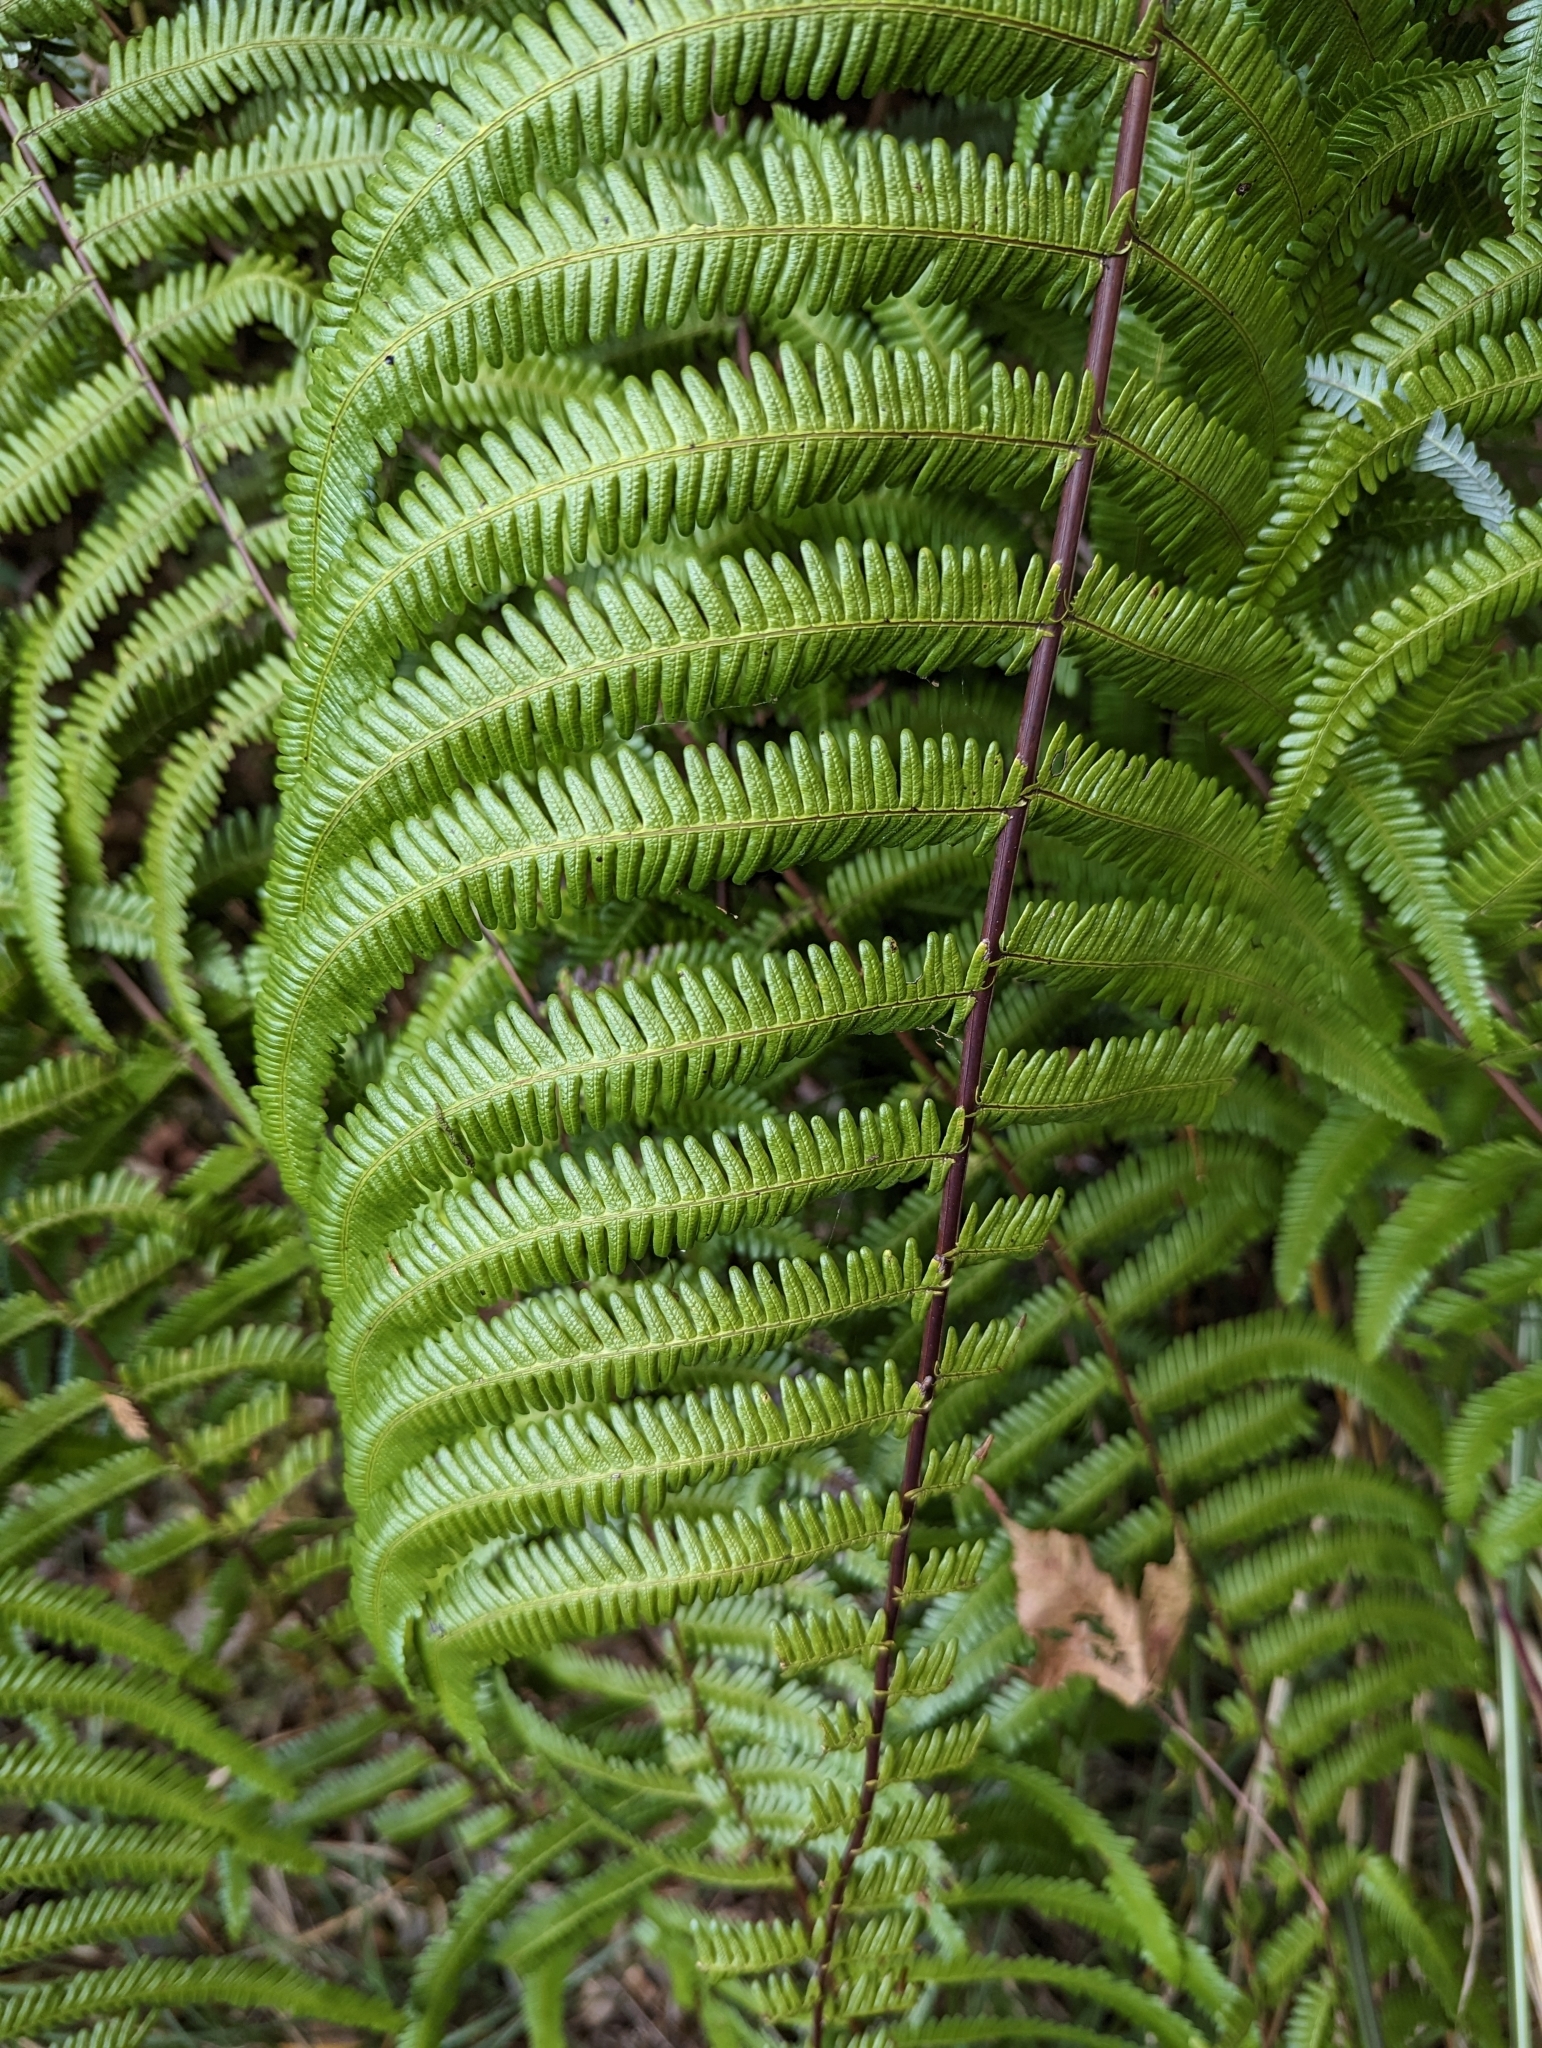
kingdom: Plantae
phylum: Tracheophyta
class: Polypodiopsida
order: Gleicheniales
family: Gleicheniaceae
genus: Diplopterygium
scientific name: Diplopterygium glaucum
